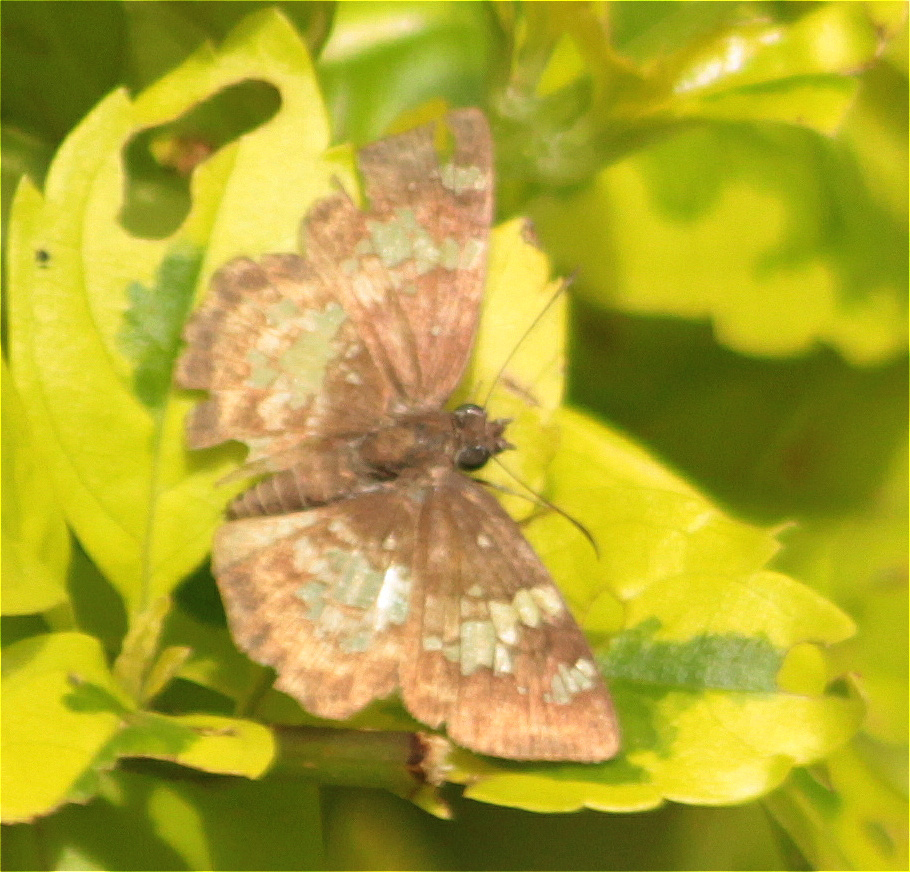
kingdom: Animalia
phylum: Arthropoda
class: Insecta
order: Lepidoptera
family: Hesperiidae
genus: Xenophanes
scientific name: Xenophanes tryxus
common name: Glassy-winged skipper
